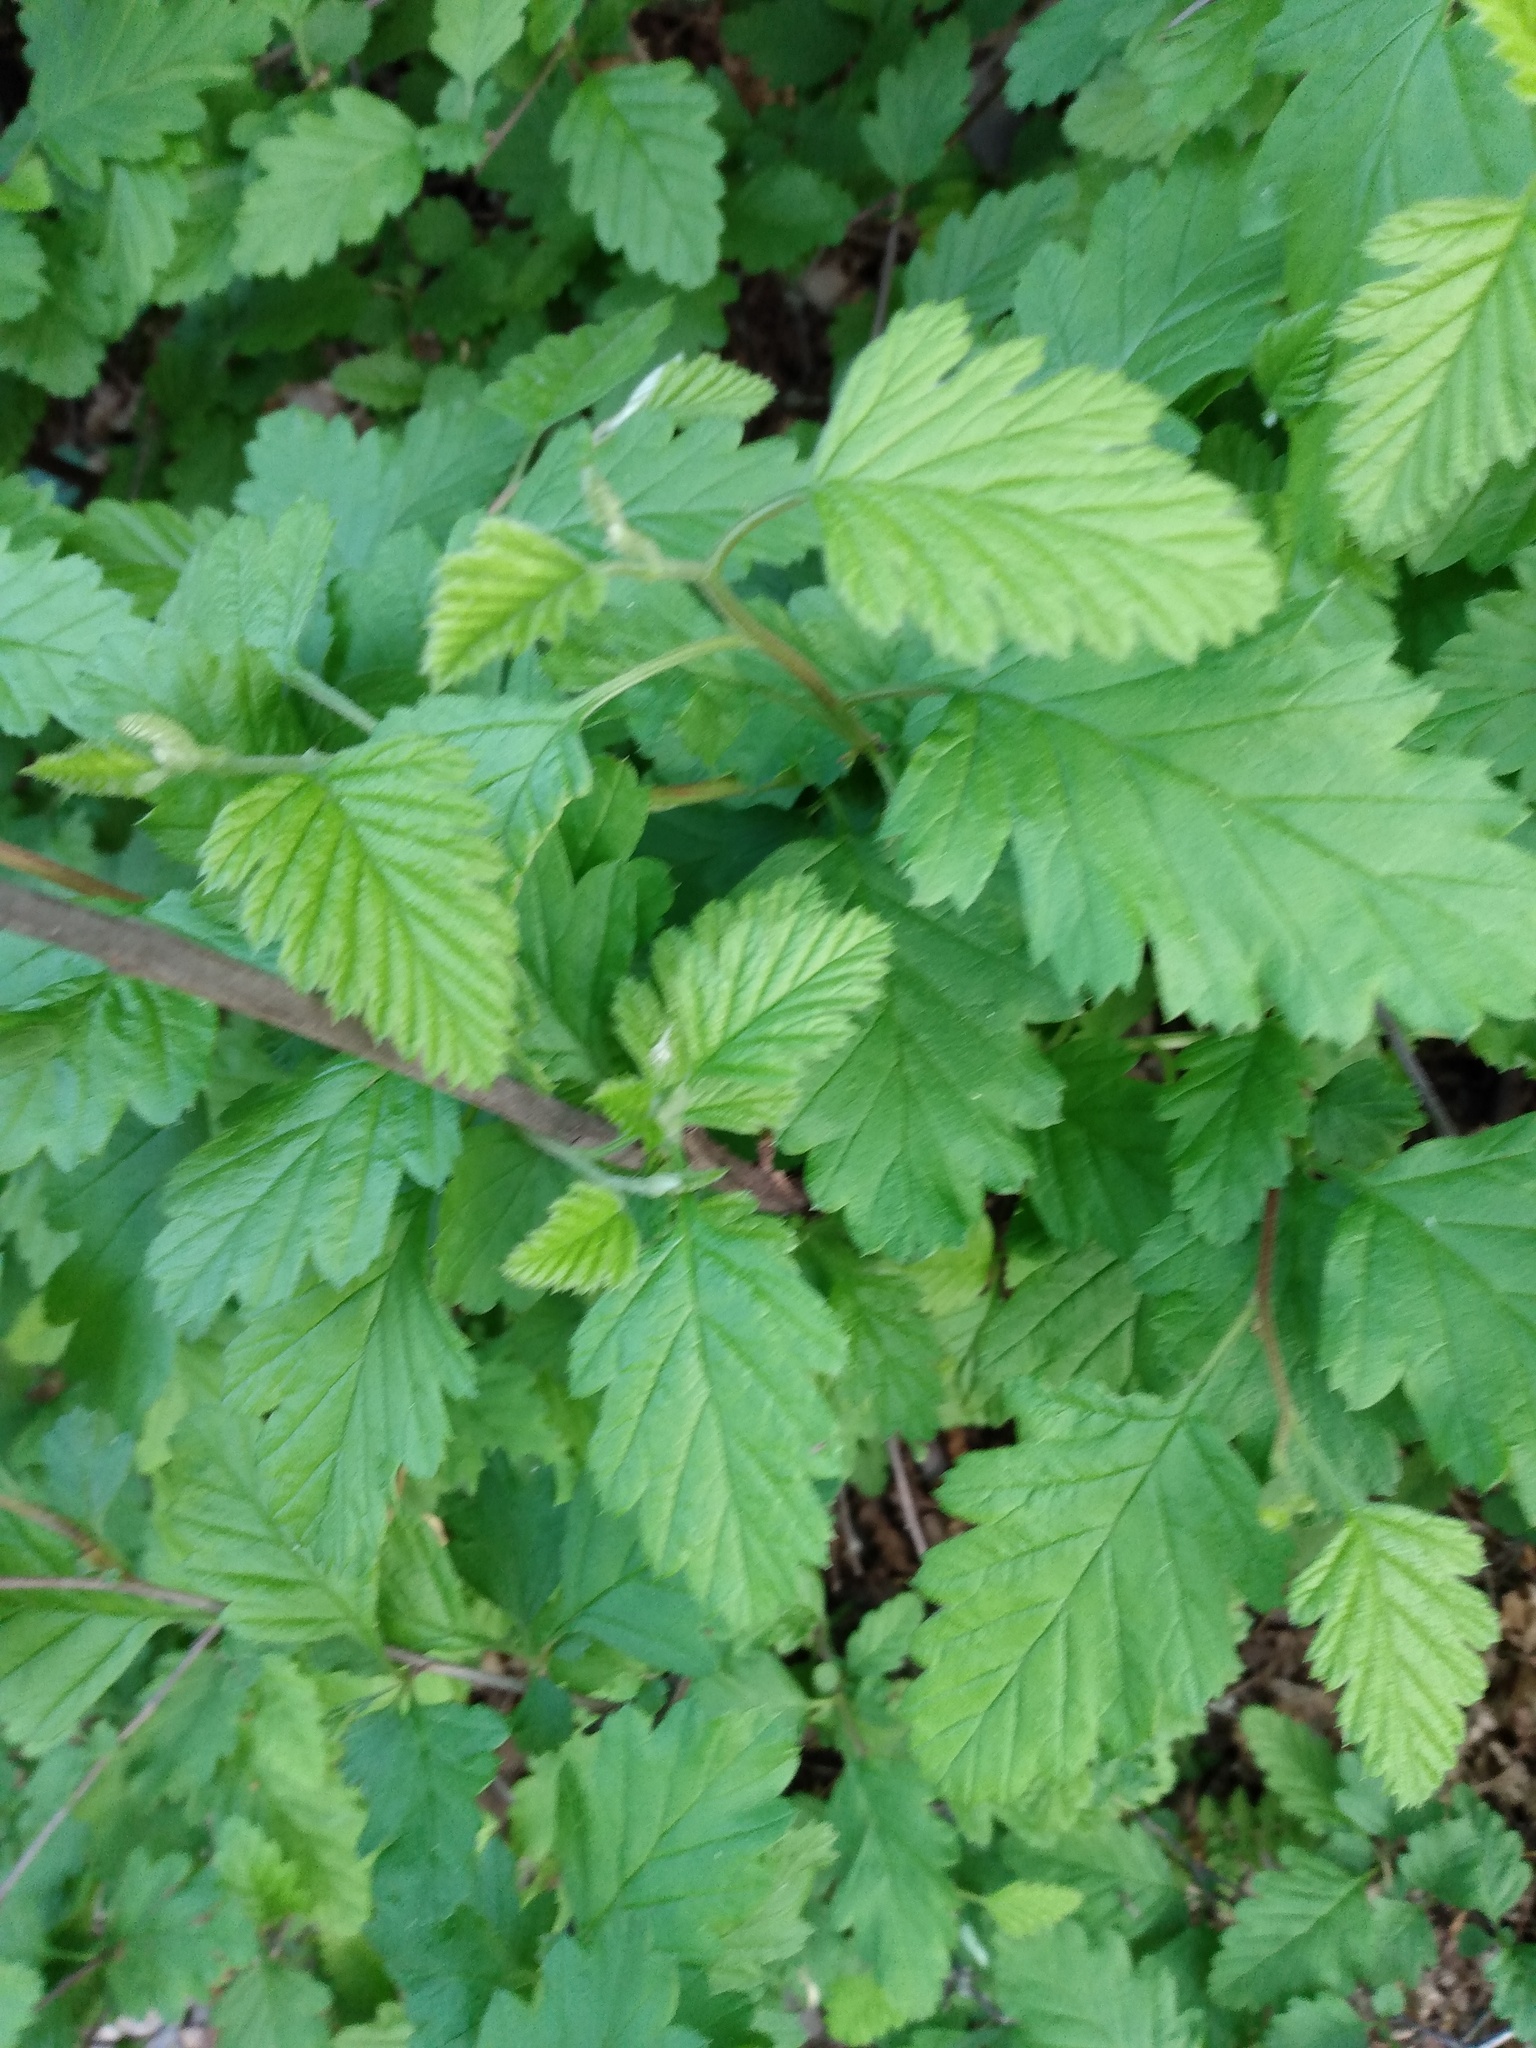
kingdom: Plantae
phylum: Tracheophyta
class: Magnoliopsida
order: Rosales
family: Rosaceae
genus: Holodiscus
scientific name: Holodiscus discolor
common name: Oceanspray
